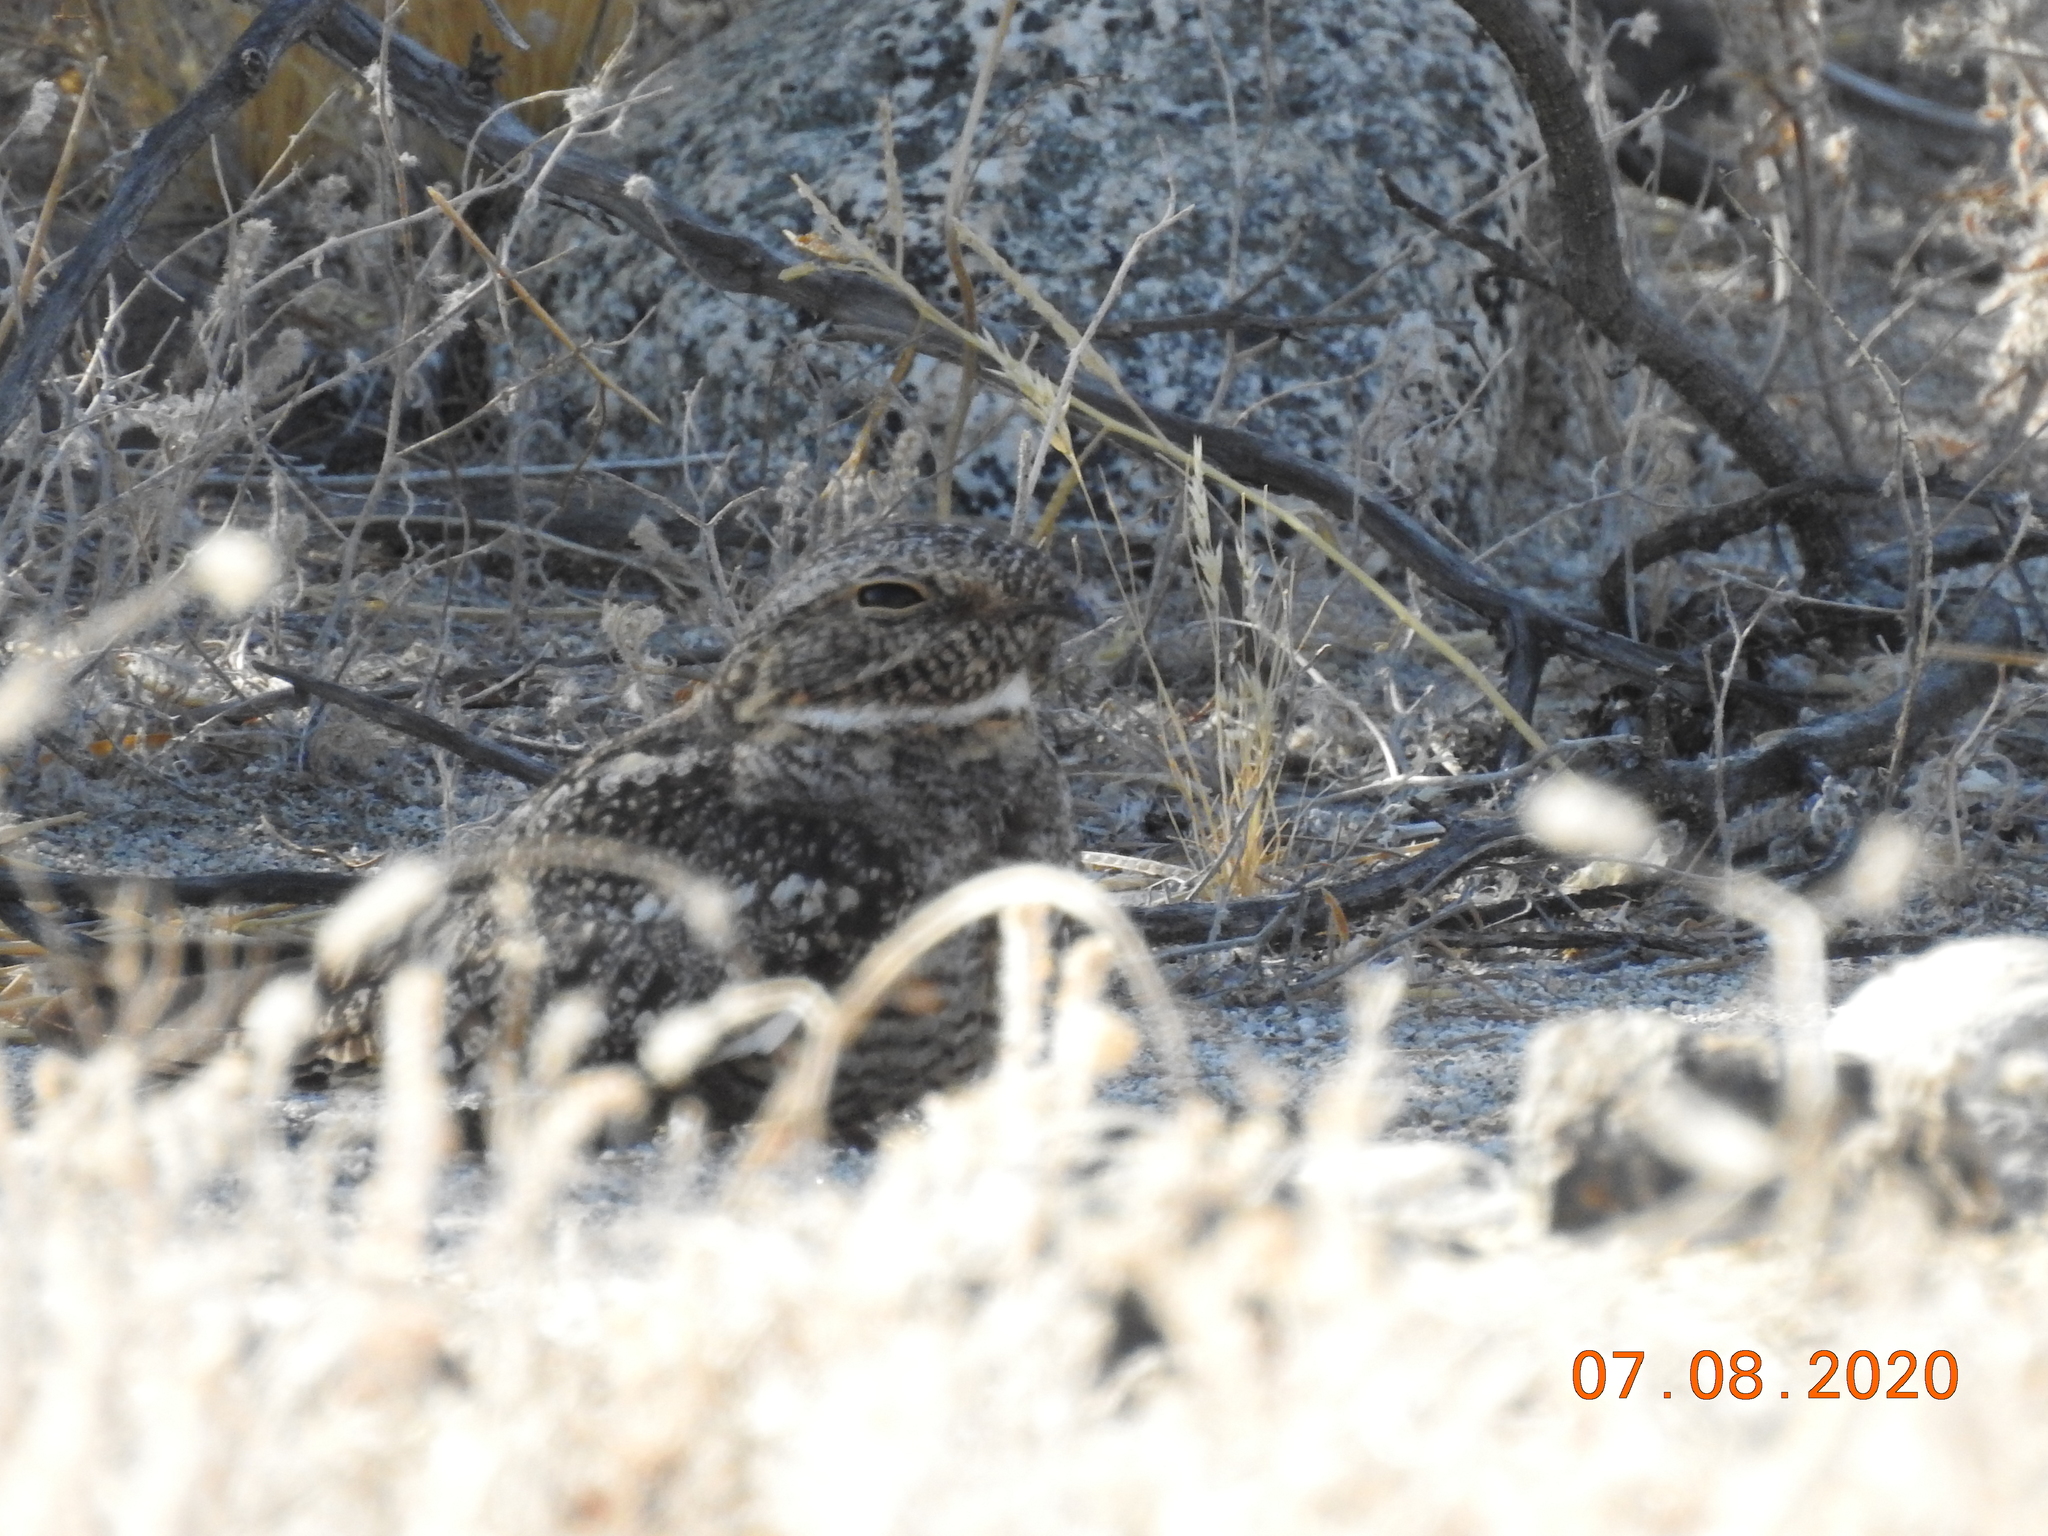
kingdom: Animalia
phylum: Chordata
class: Aves
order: Caprimulgiformes
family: Caprimulgidae
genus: Chordeiles
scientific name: Chordeiles acutipennis
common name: Lesser nighthawk
